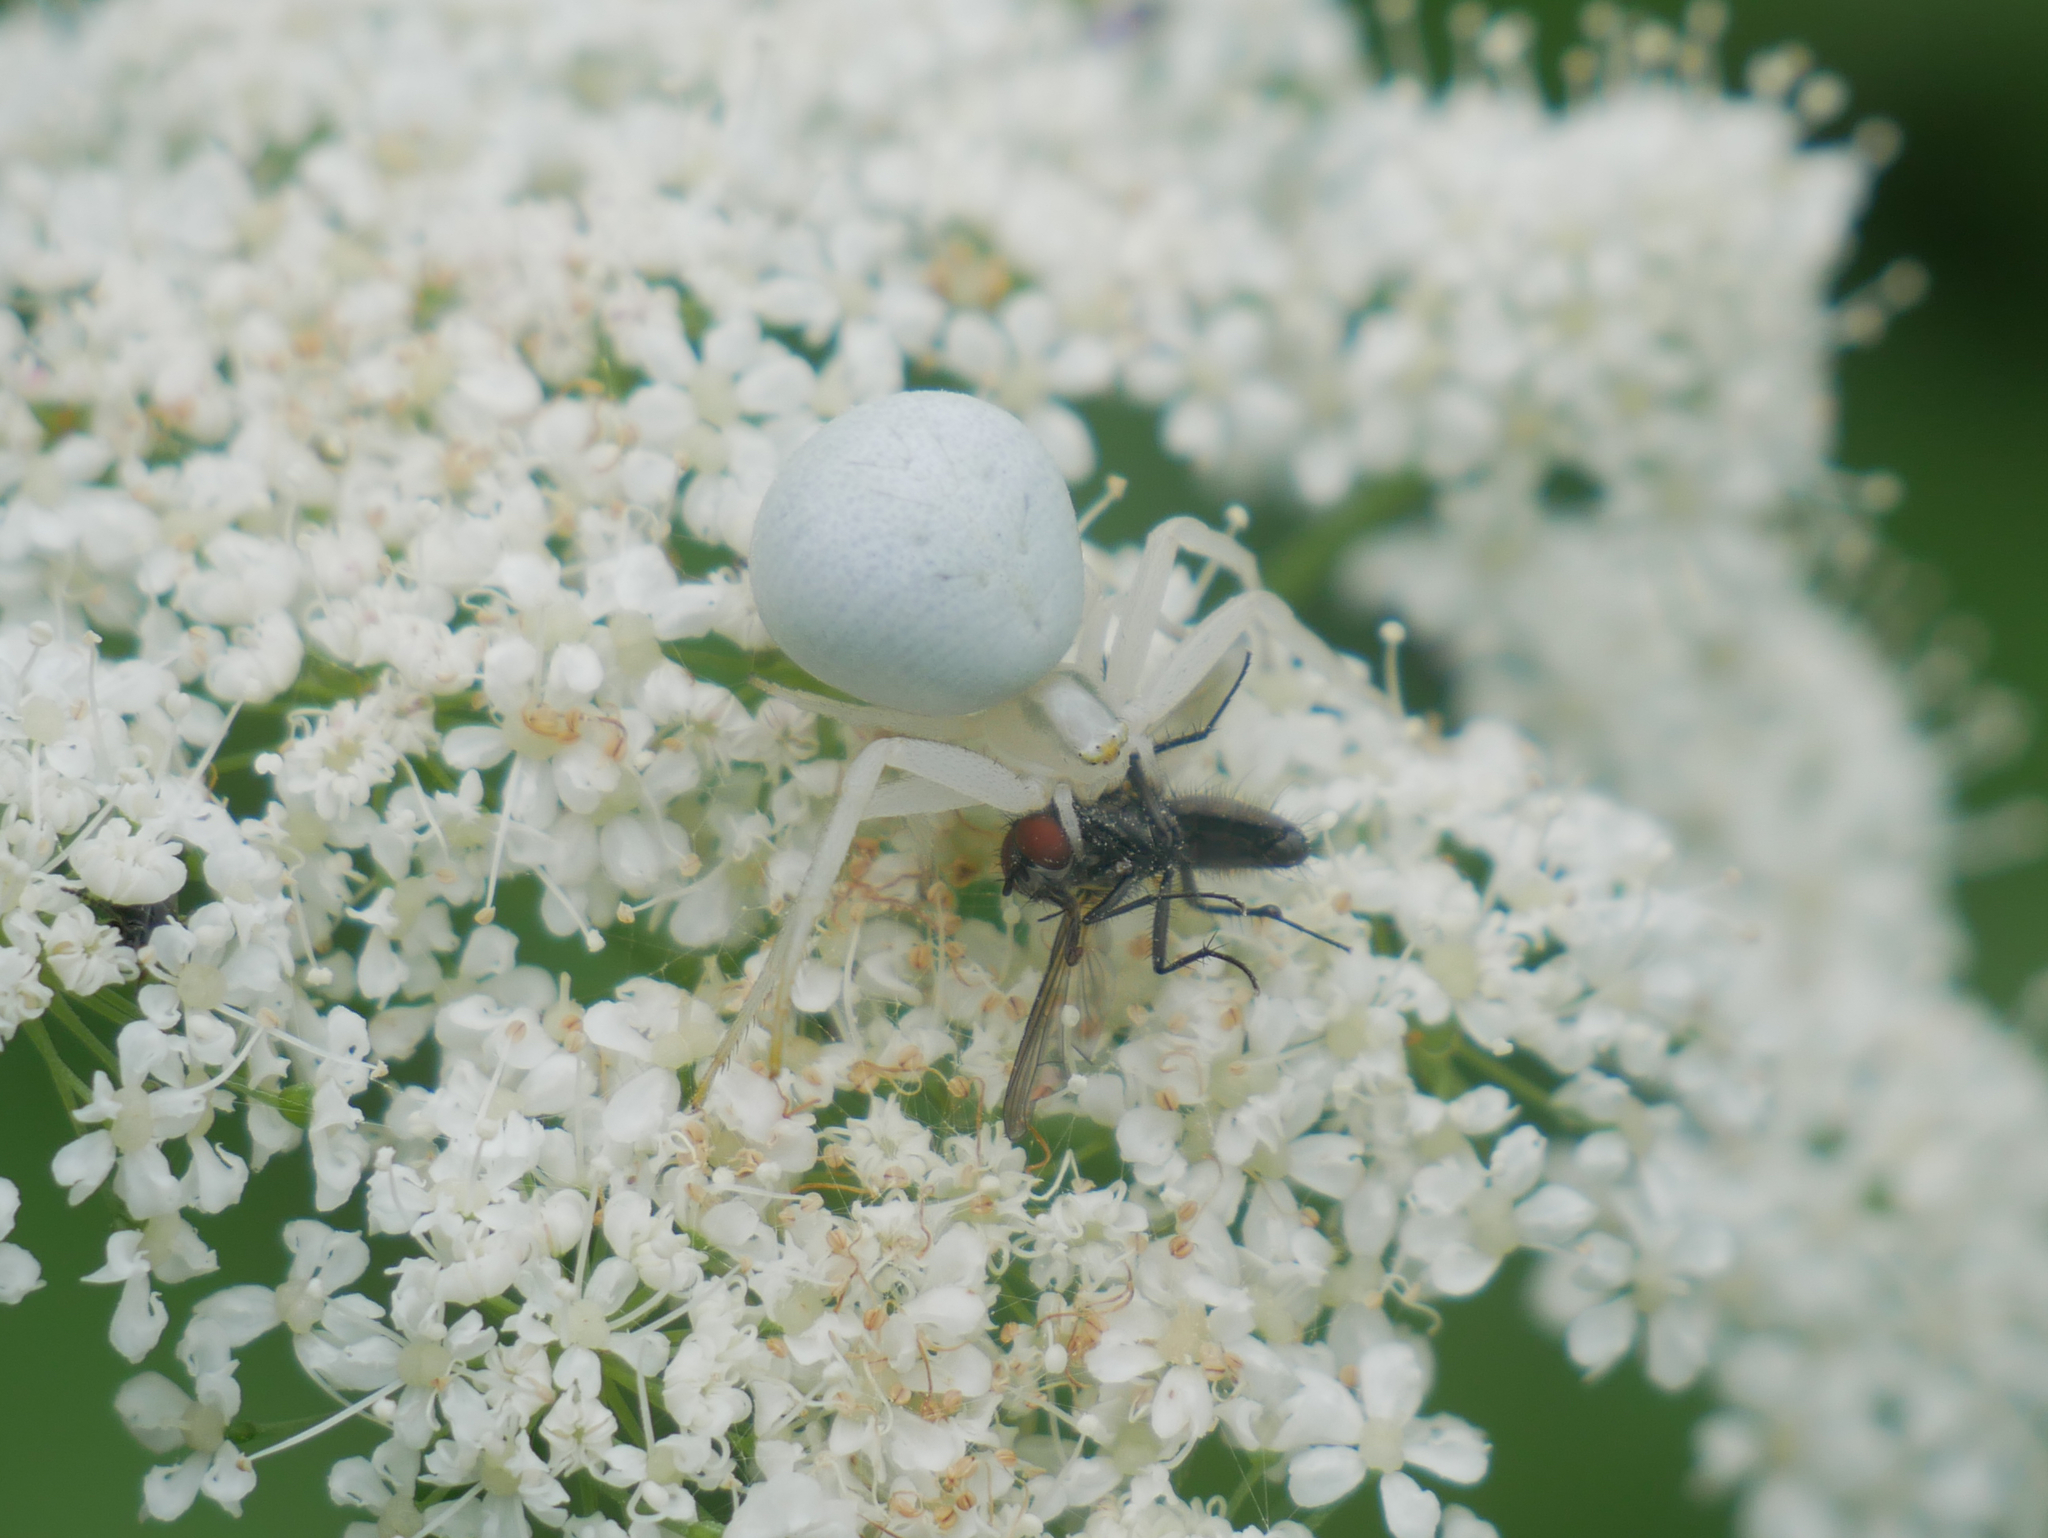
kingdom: Animalia
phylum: Arthropoda
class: Arachnida
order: Araneae
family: Thomisidae
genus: Misumena
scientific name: Misumena vatia
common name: Goldenrod crab spider
